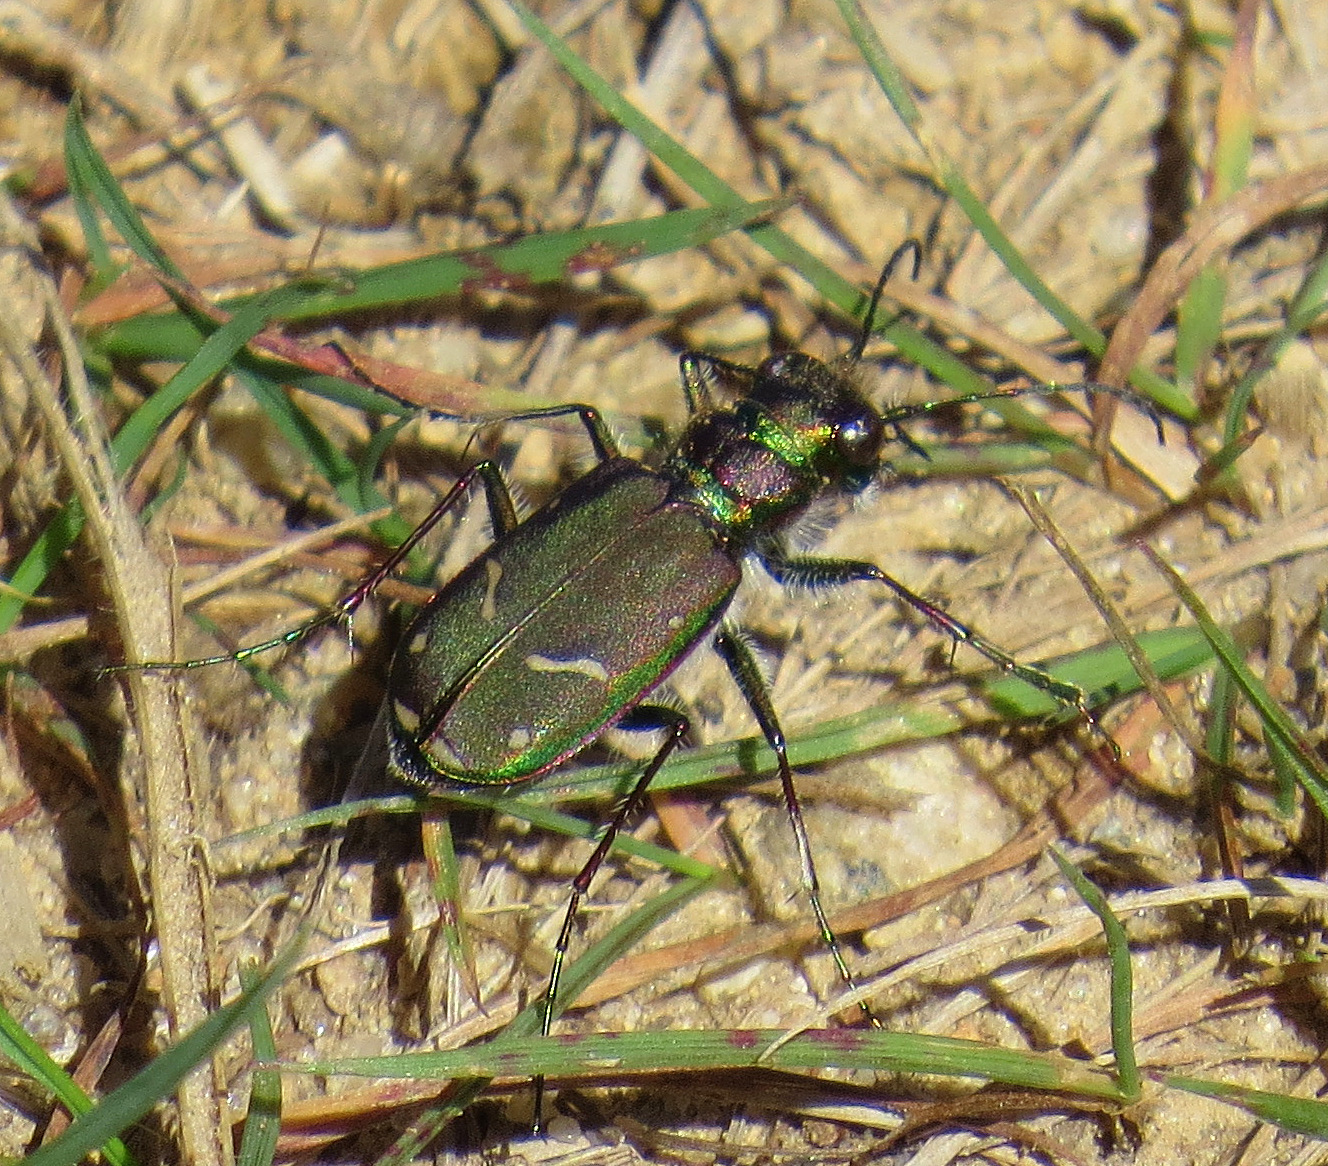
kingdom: Animalia
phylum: Arthropoda
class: Insecta
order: Coleoptera
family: Carabidae
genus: Cicindela
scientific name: Cicindela purpurea
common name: Cow path tiger beetle
